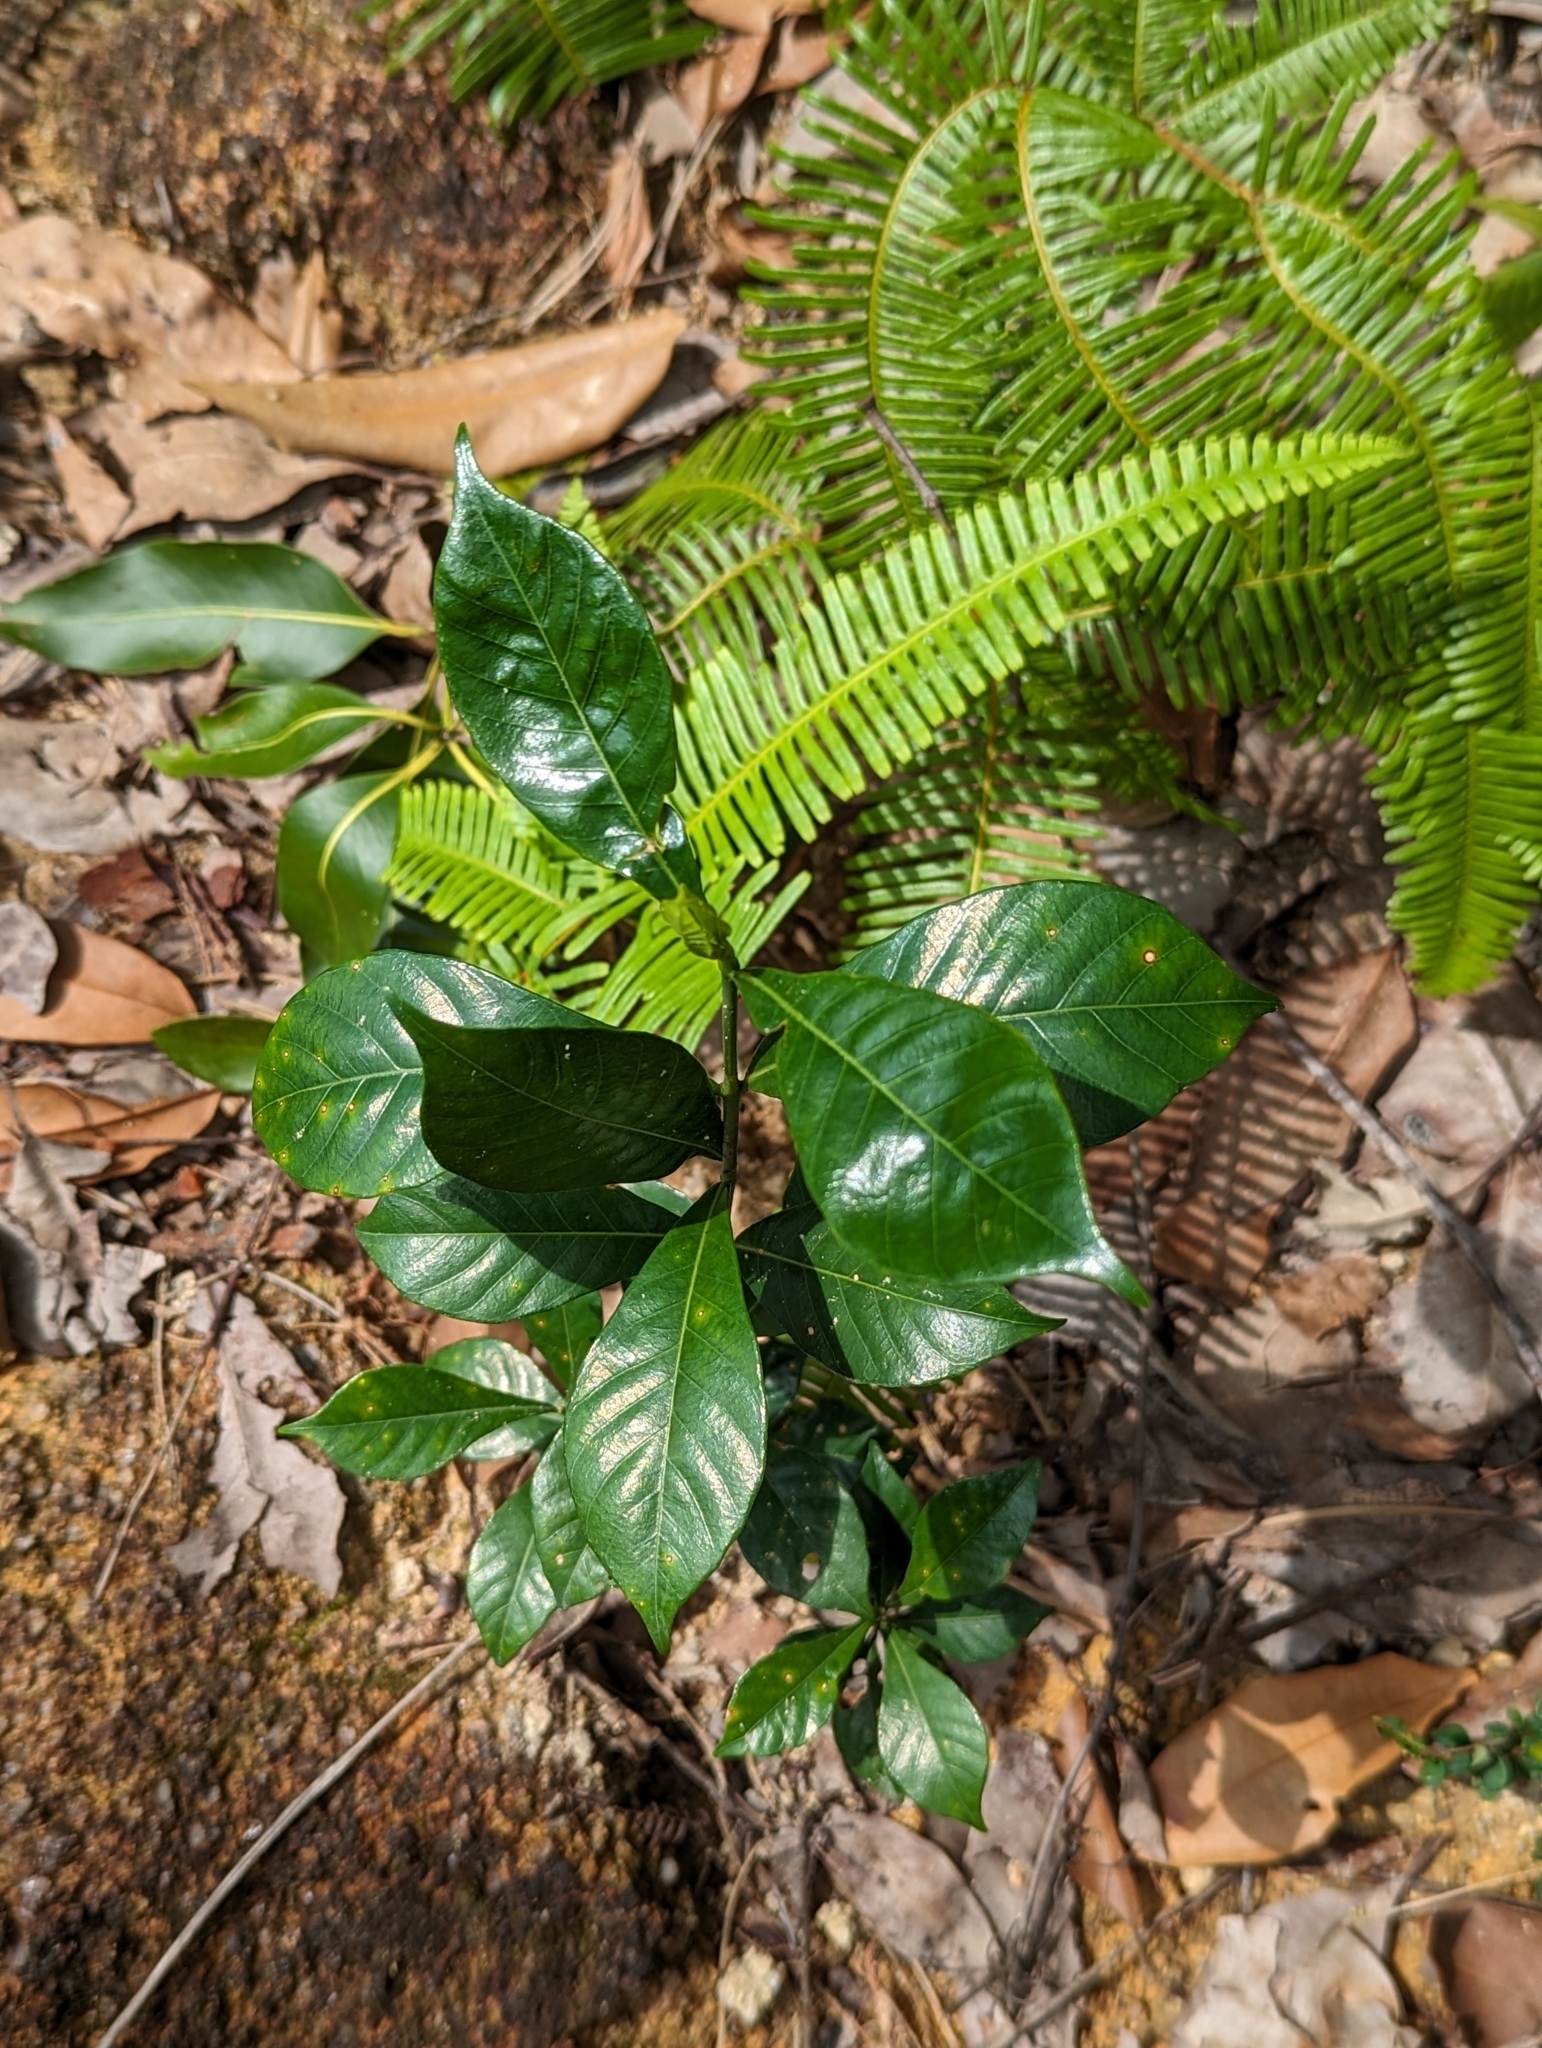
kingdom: Plantae
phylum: Tracheophyta
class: Magnoliopsida
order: Gentianales
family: Rubiaceae
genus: Gardenia
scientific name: Gardenia jasminoides
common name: Cape-jasmine
